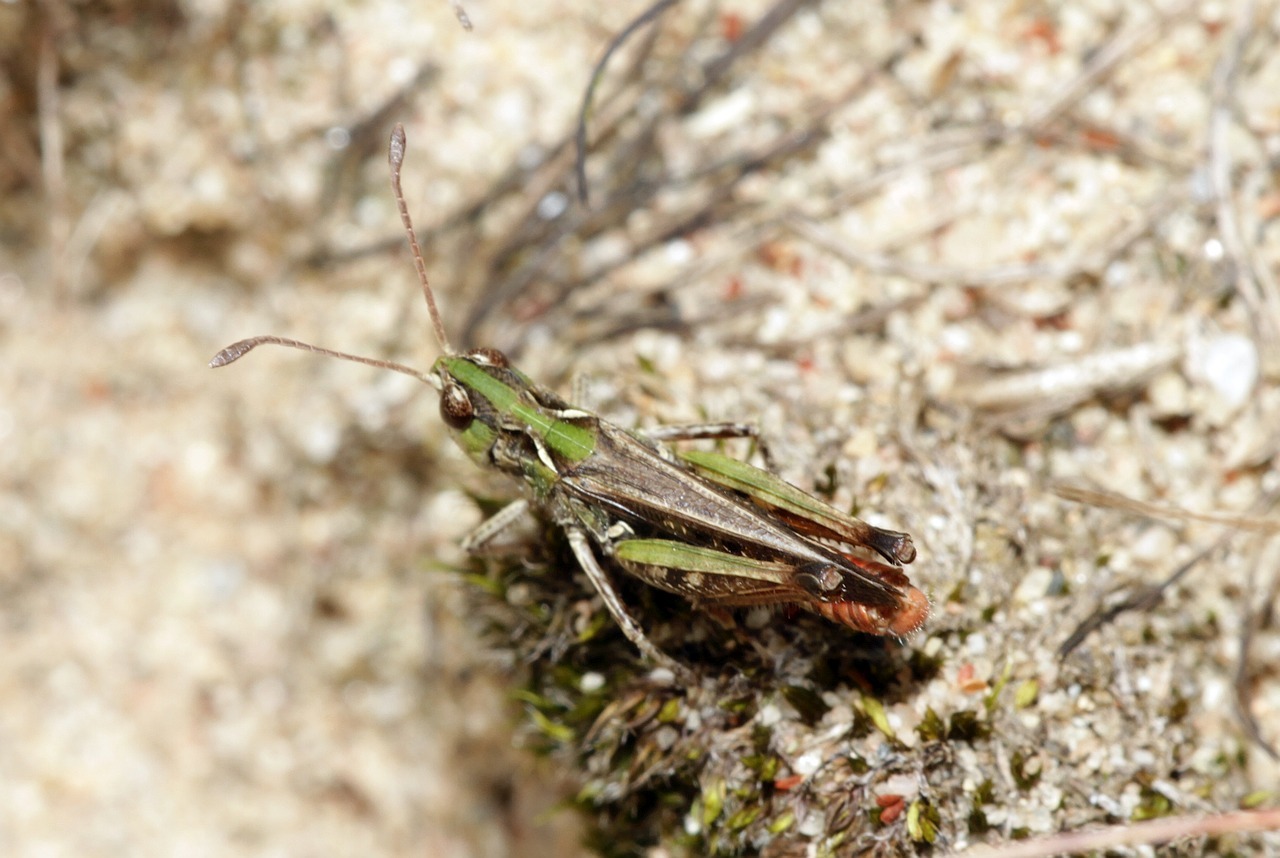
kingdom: Animalia
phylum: Arthropoda
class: Insecta
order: Orthoptera
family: Acrididae
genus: Myrmeleotettix
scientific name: Myrmeleotettix maculatus
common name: Mottled grasshopper
